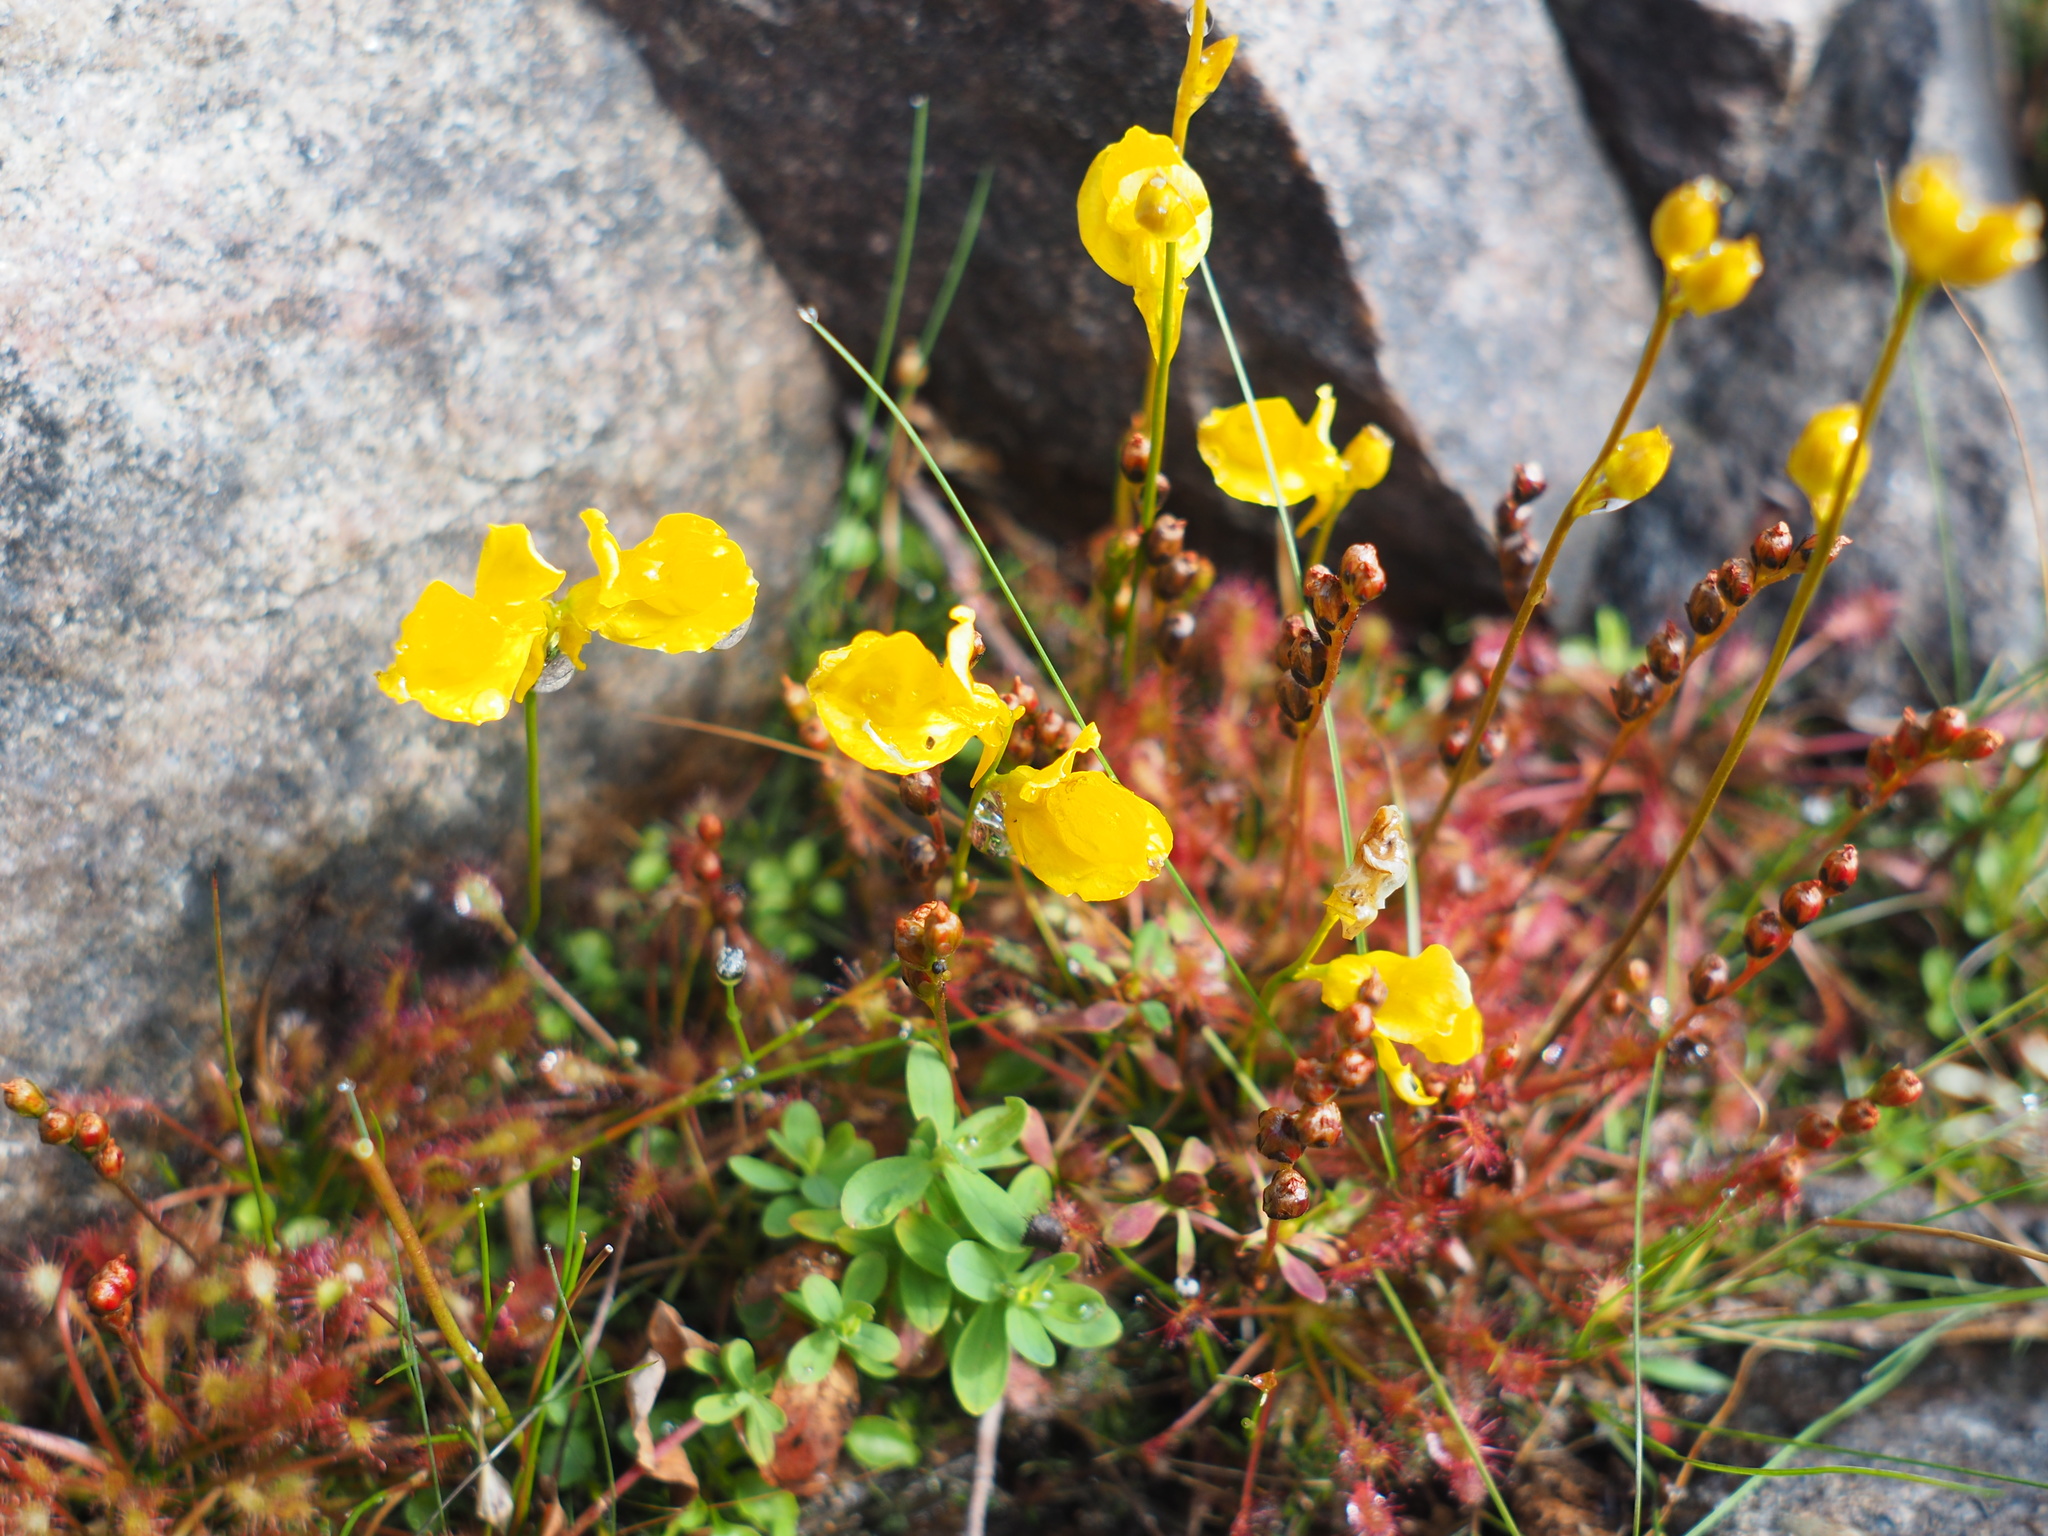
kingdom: Plantae
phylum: Tracheophyta
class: Magnoliopsida
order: Lamiales
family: Lentibulariaceae
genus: Utricularia
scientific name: Utricularia cornuta
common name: Horned bladderwort
